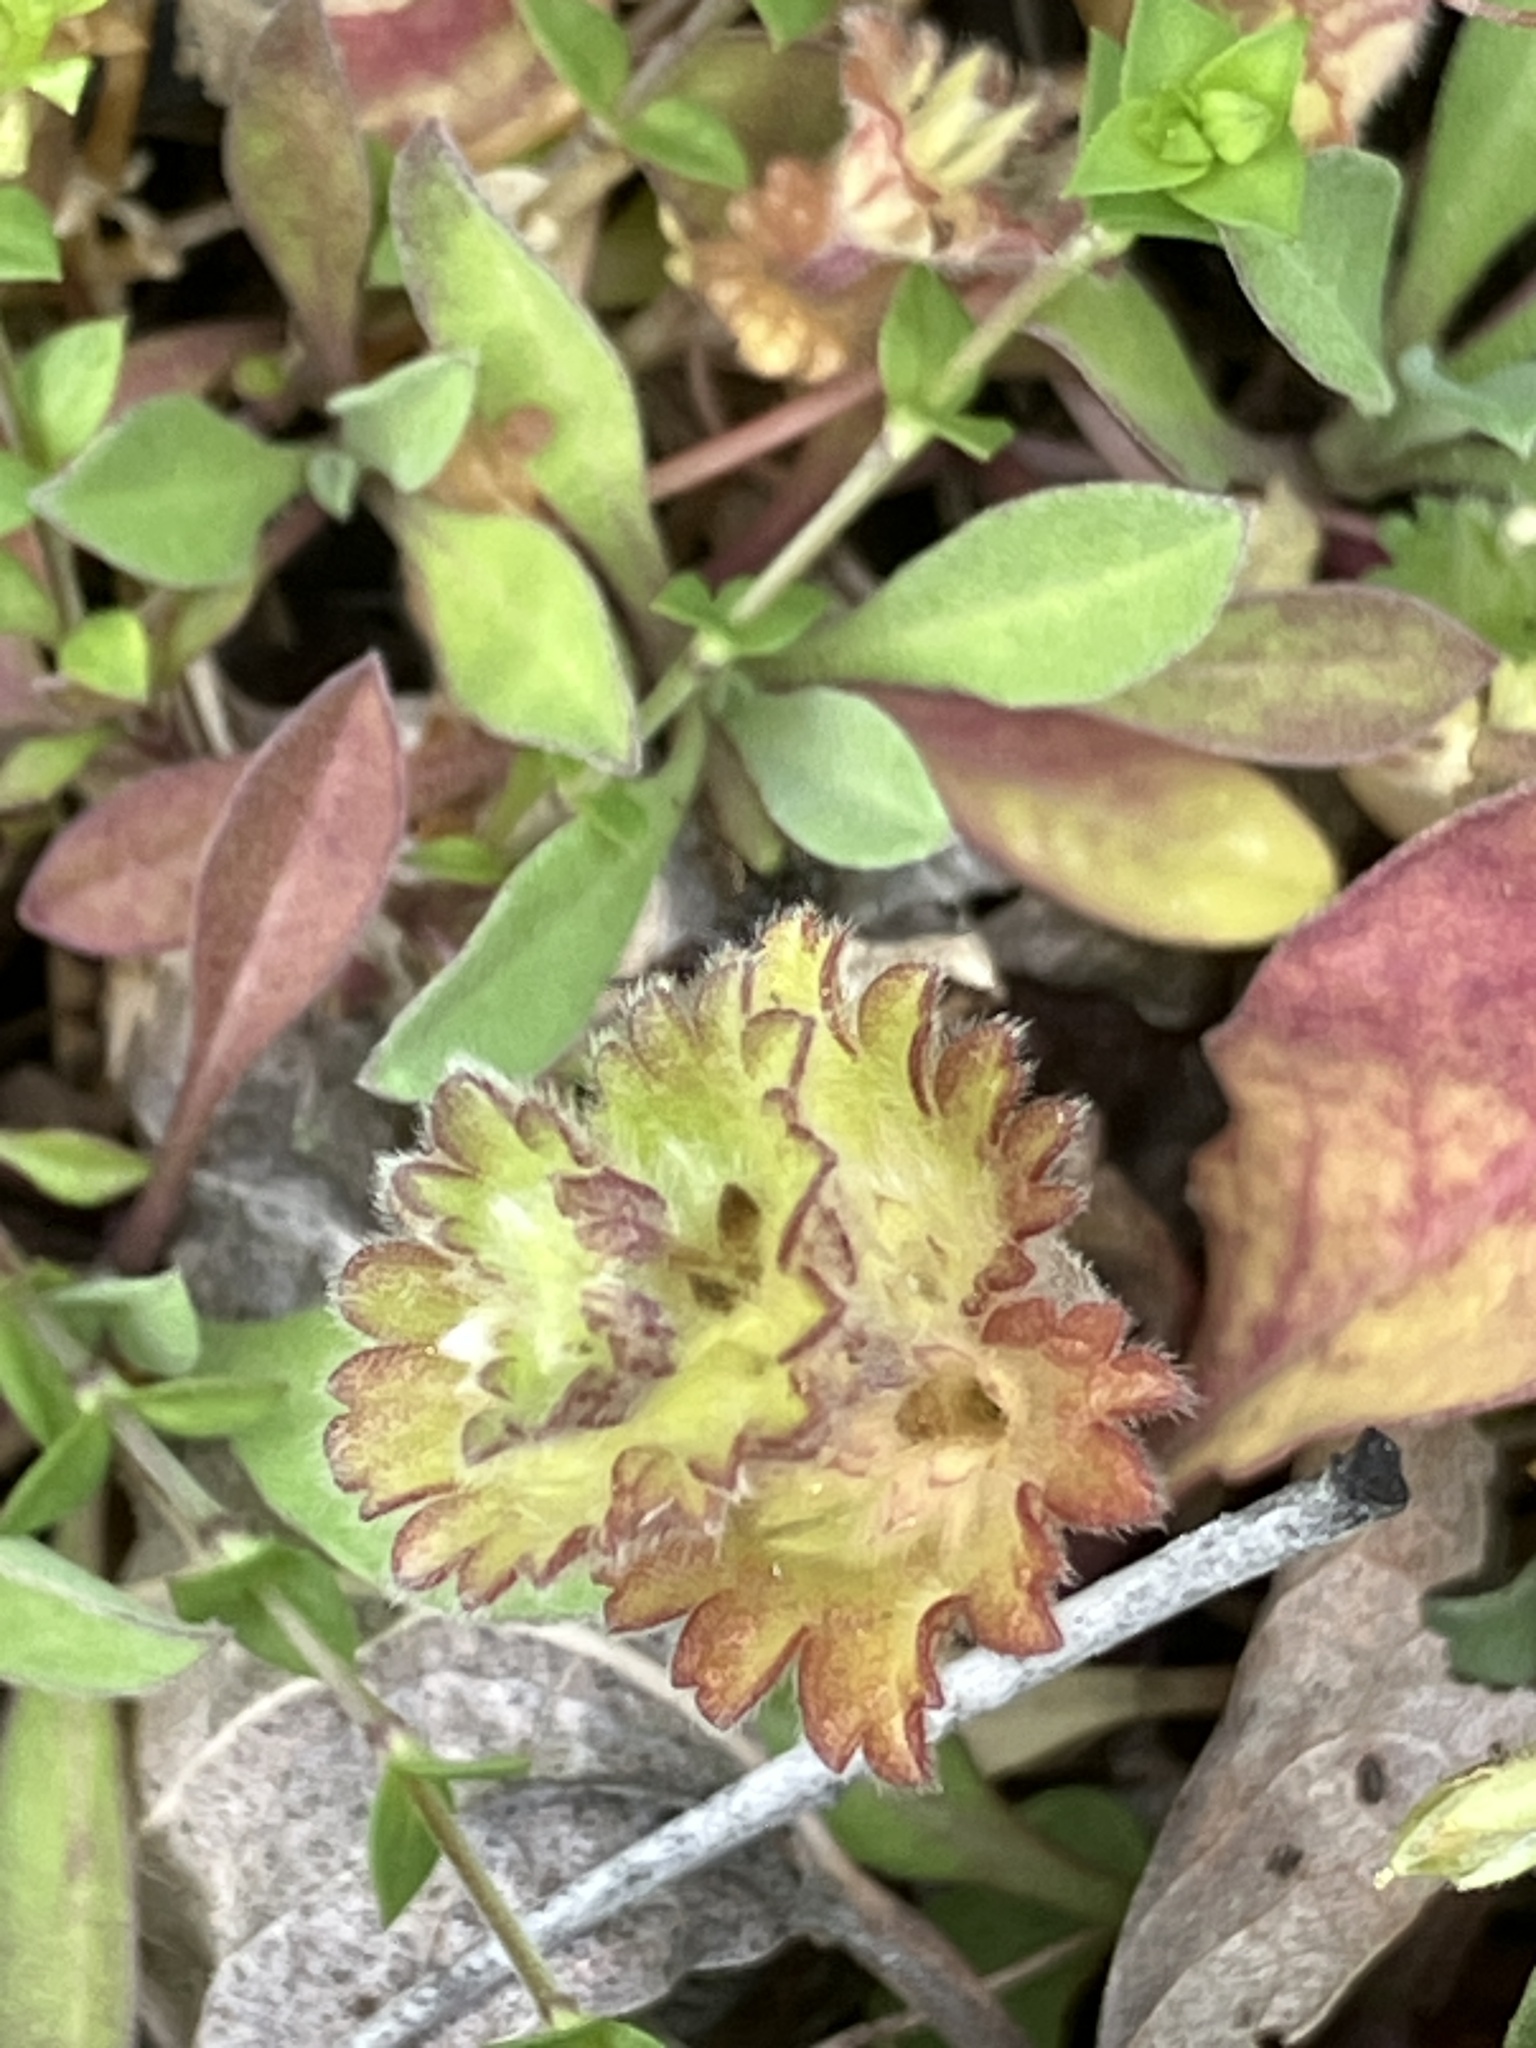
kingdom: Plantae
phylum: Tracheophyta
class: Magnoliopsida
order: Lamiales
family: Lamiaceae
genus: Lamium
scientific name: Lamium amplexicaule
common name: Henbit dead-nettle
